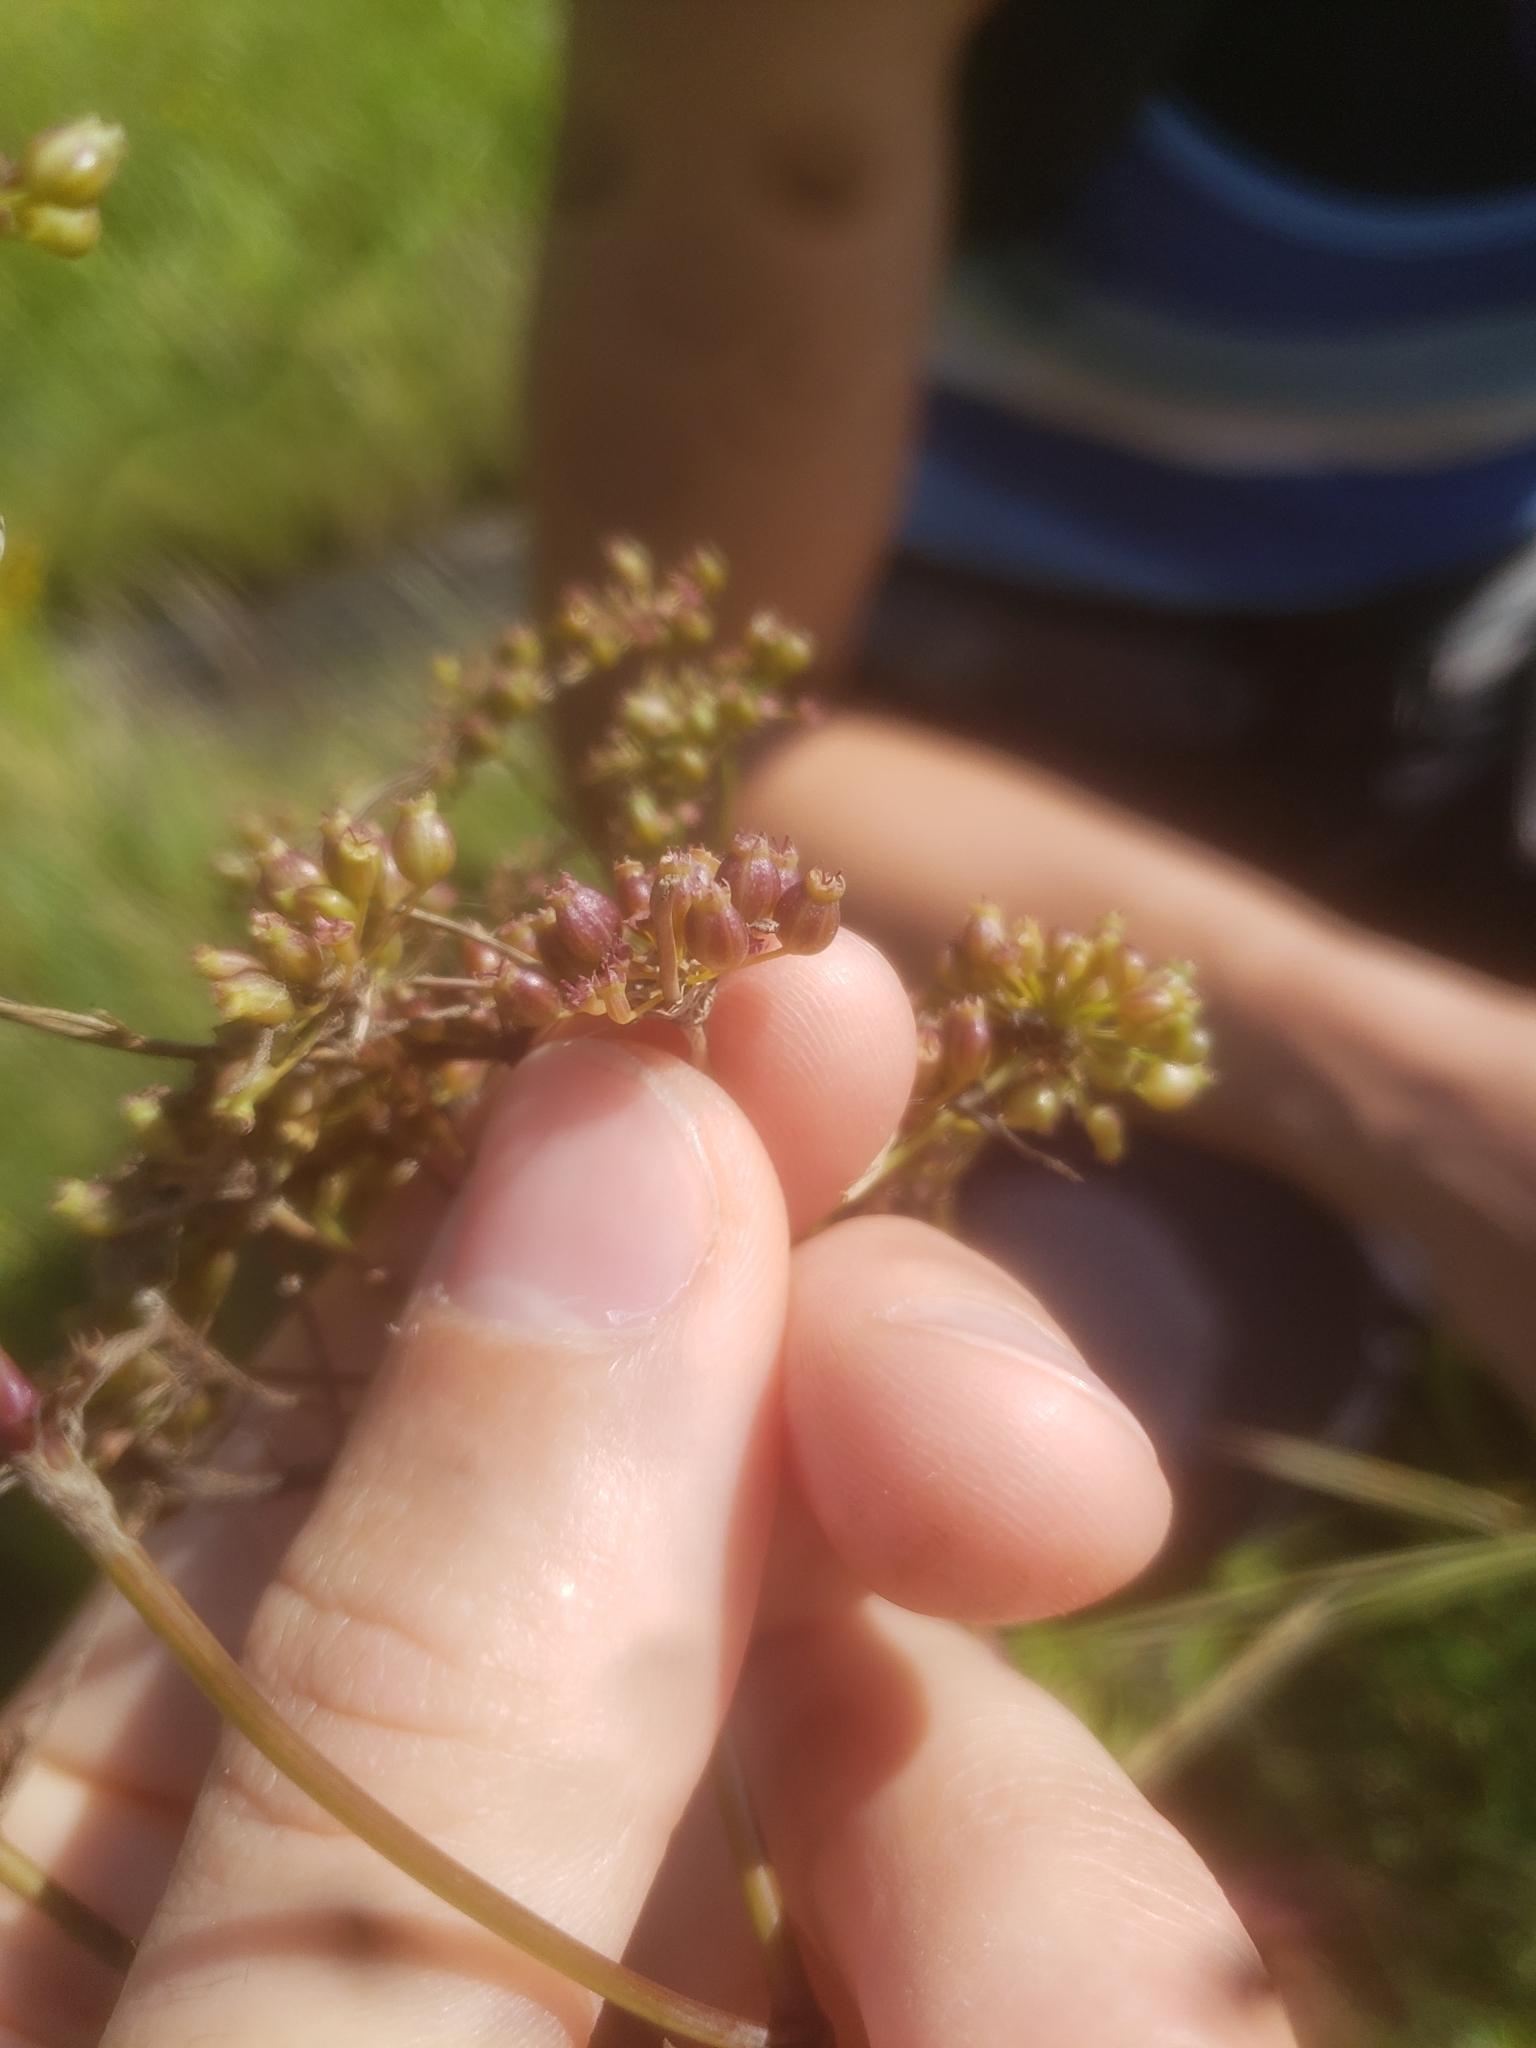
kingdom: Plantae
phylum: Tracheophyta
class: Magnoliopsida
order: Apiales
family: Apiaceae
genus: Cicuta
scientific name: Cicuta maculata
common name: Spotted cowbane
